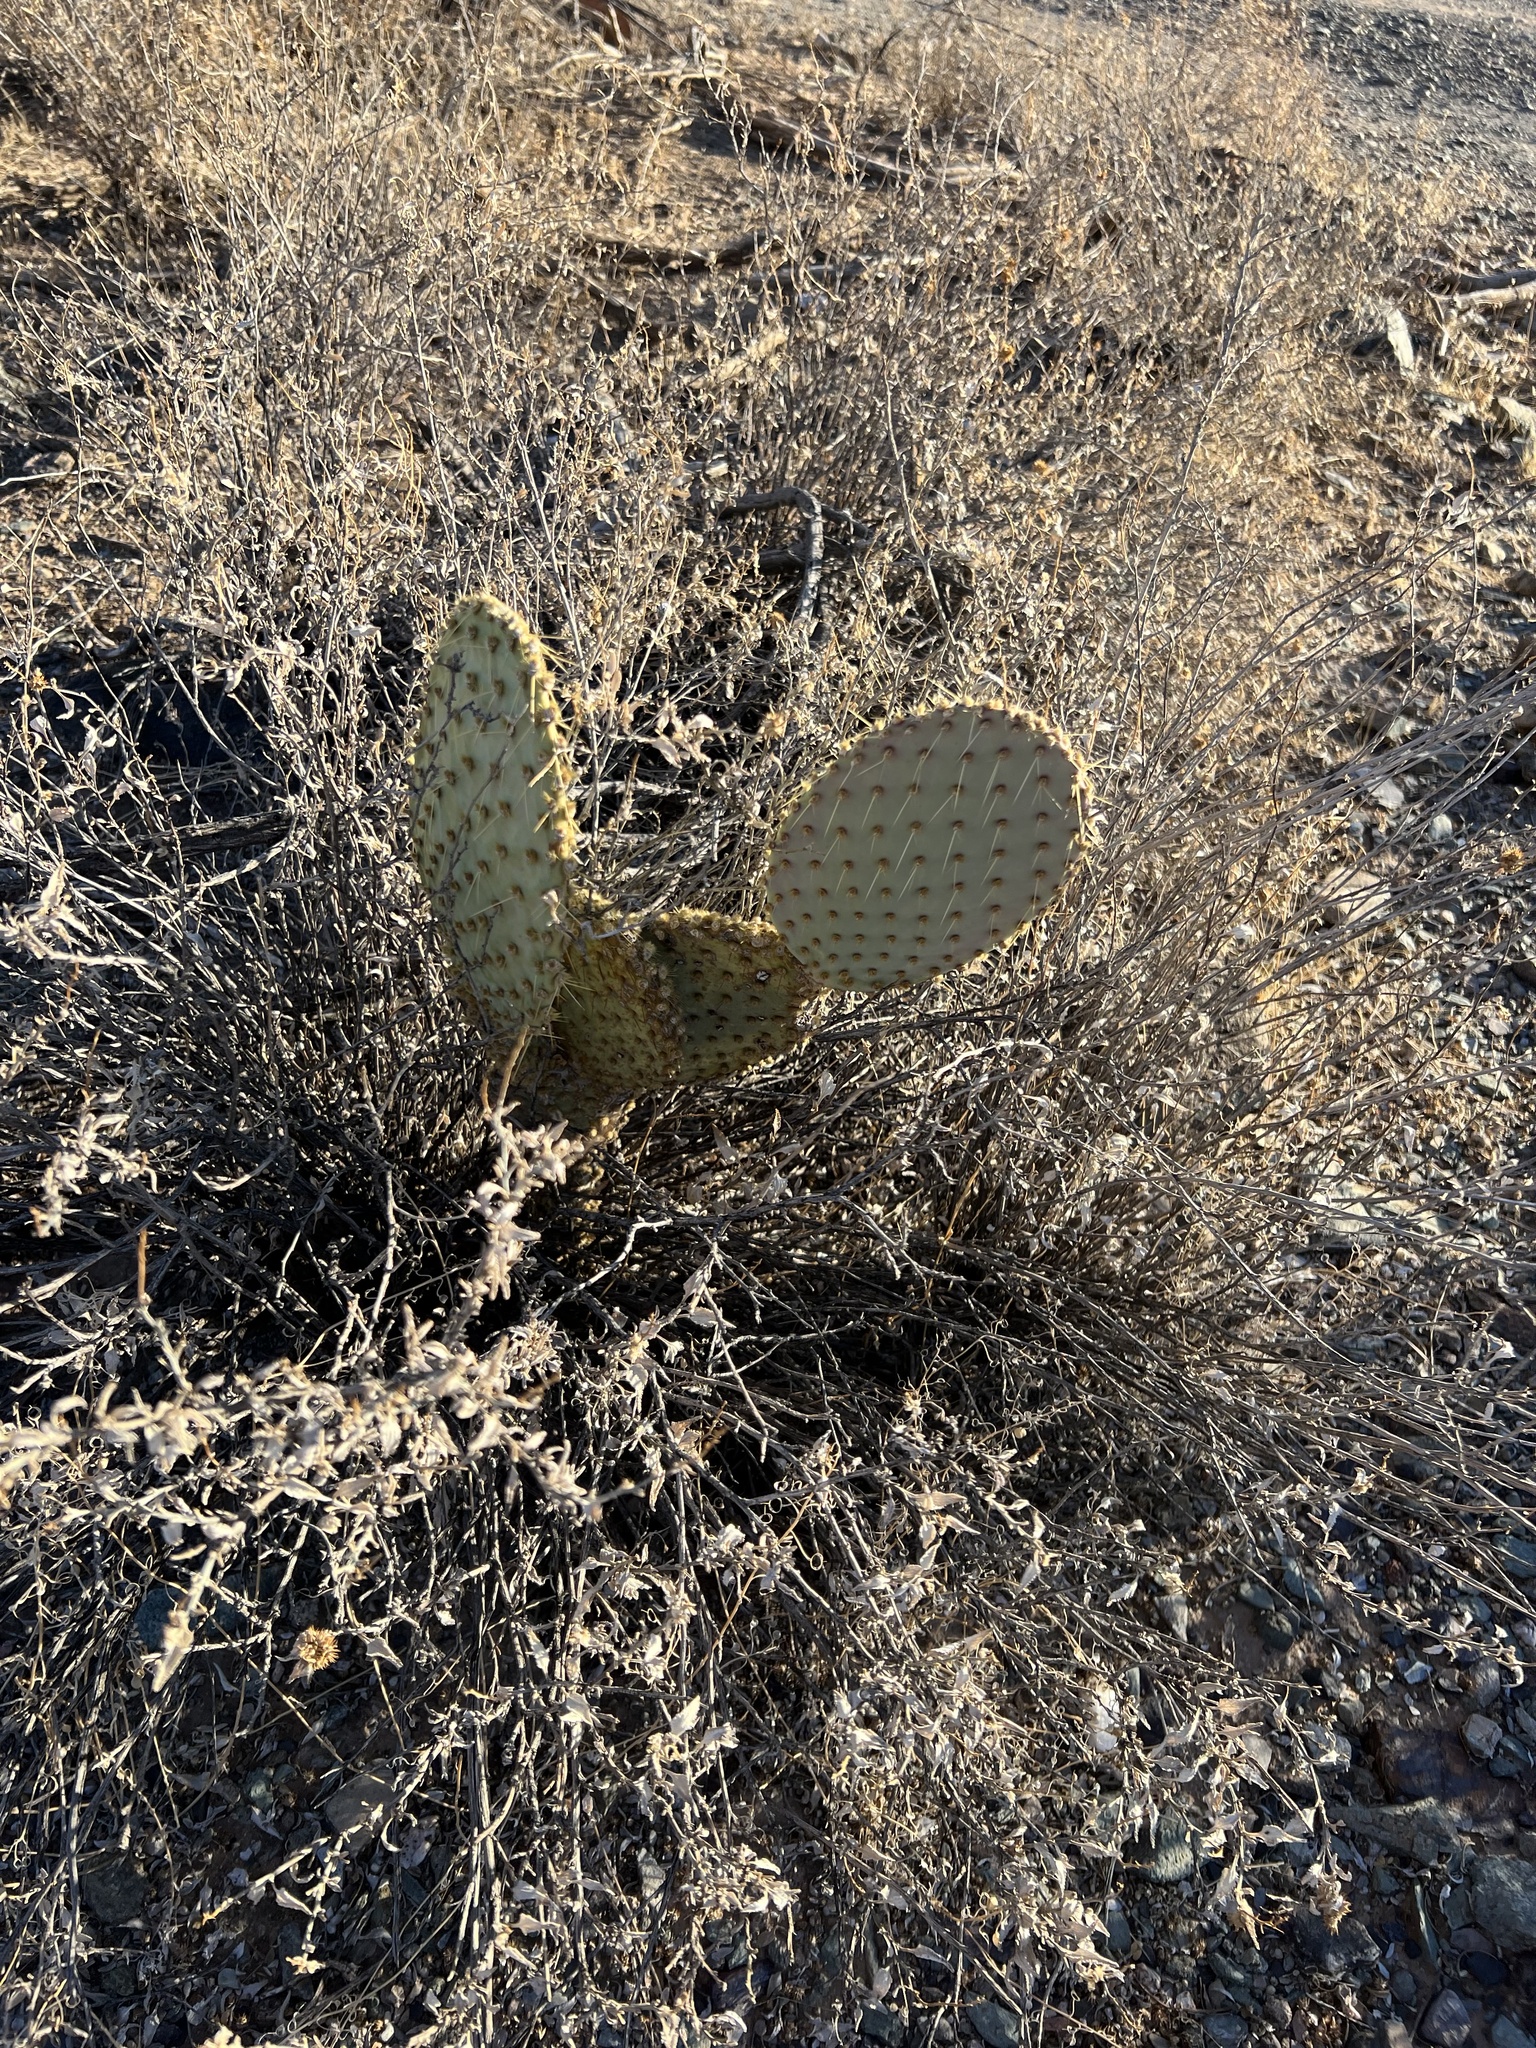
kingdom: Plantae
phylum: Tracheophyta
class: Magnoliopsida
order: Caryophyllales
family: Cactaceae
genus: Opuntia
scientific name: Opuntia chlorotica
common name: Dollar-joint prickly-pear
